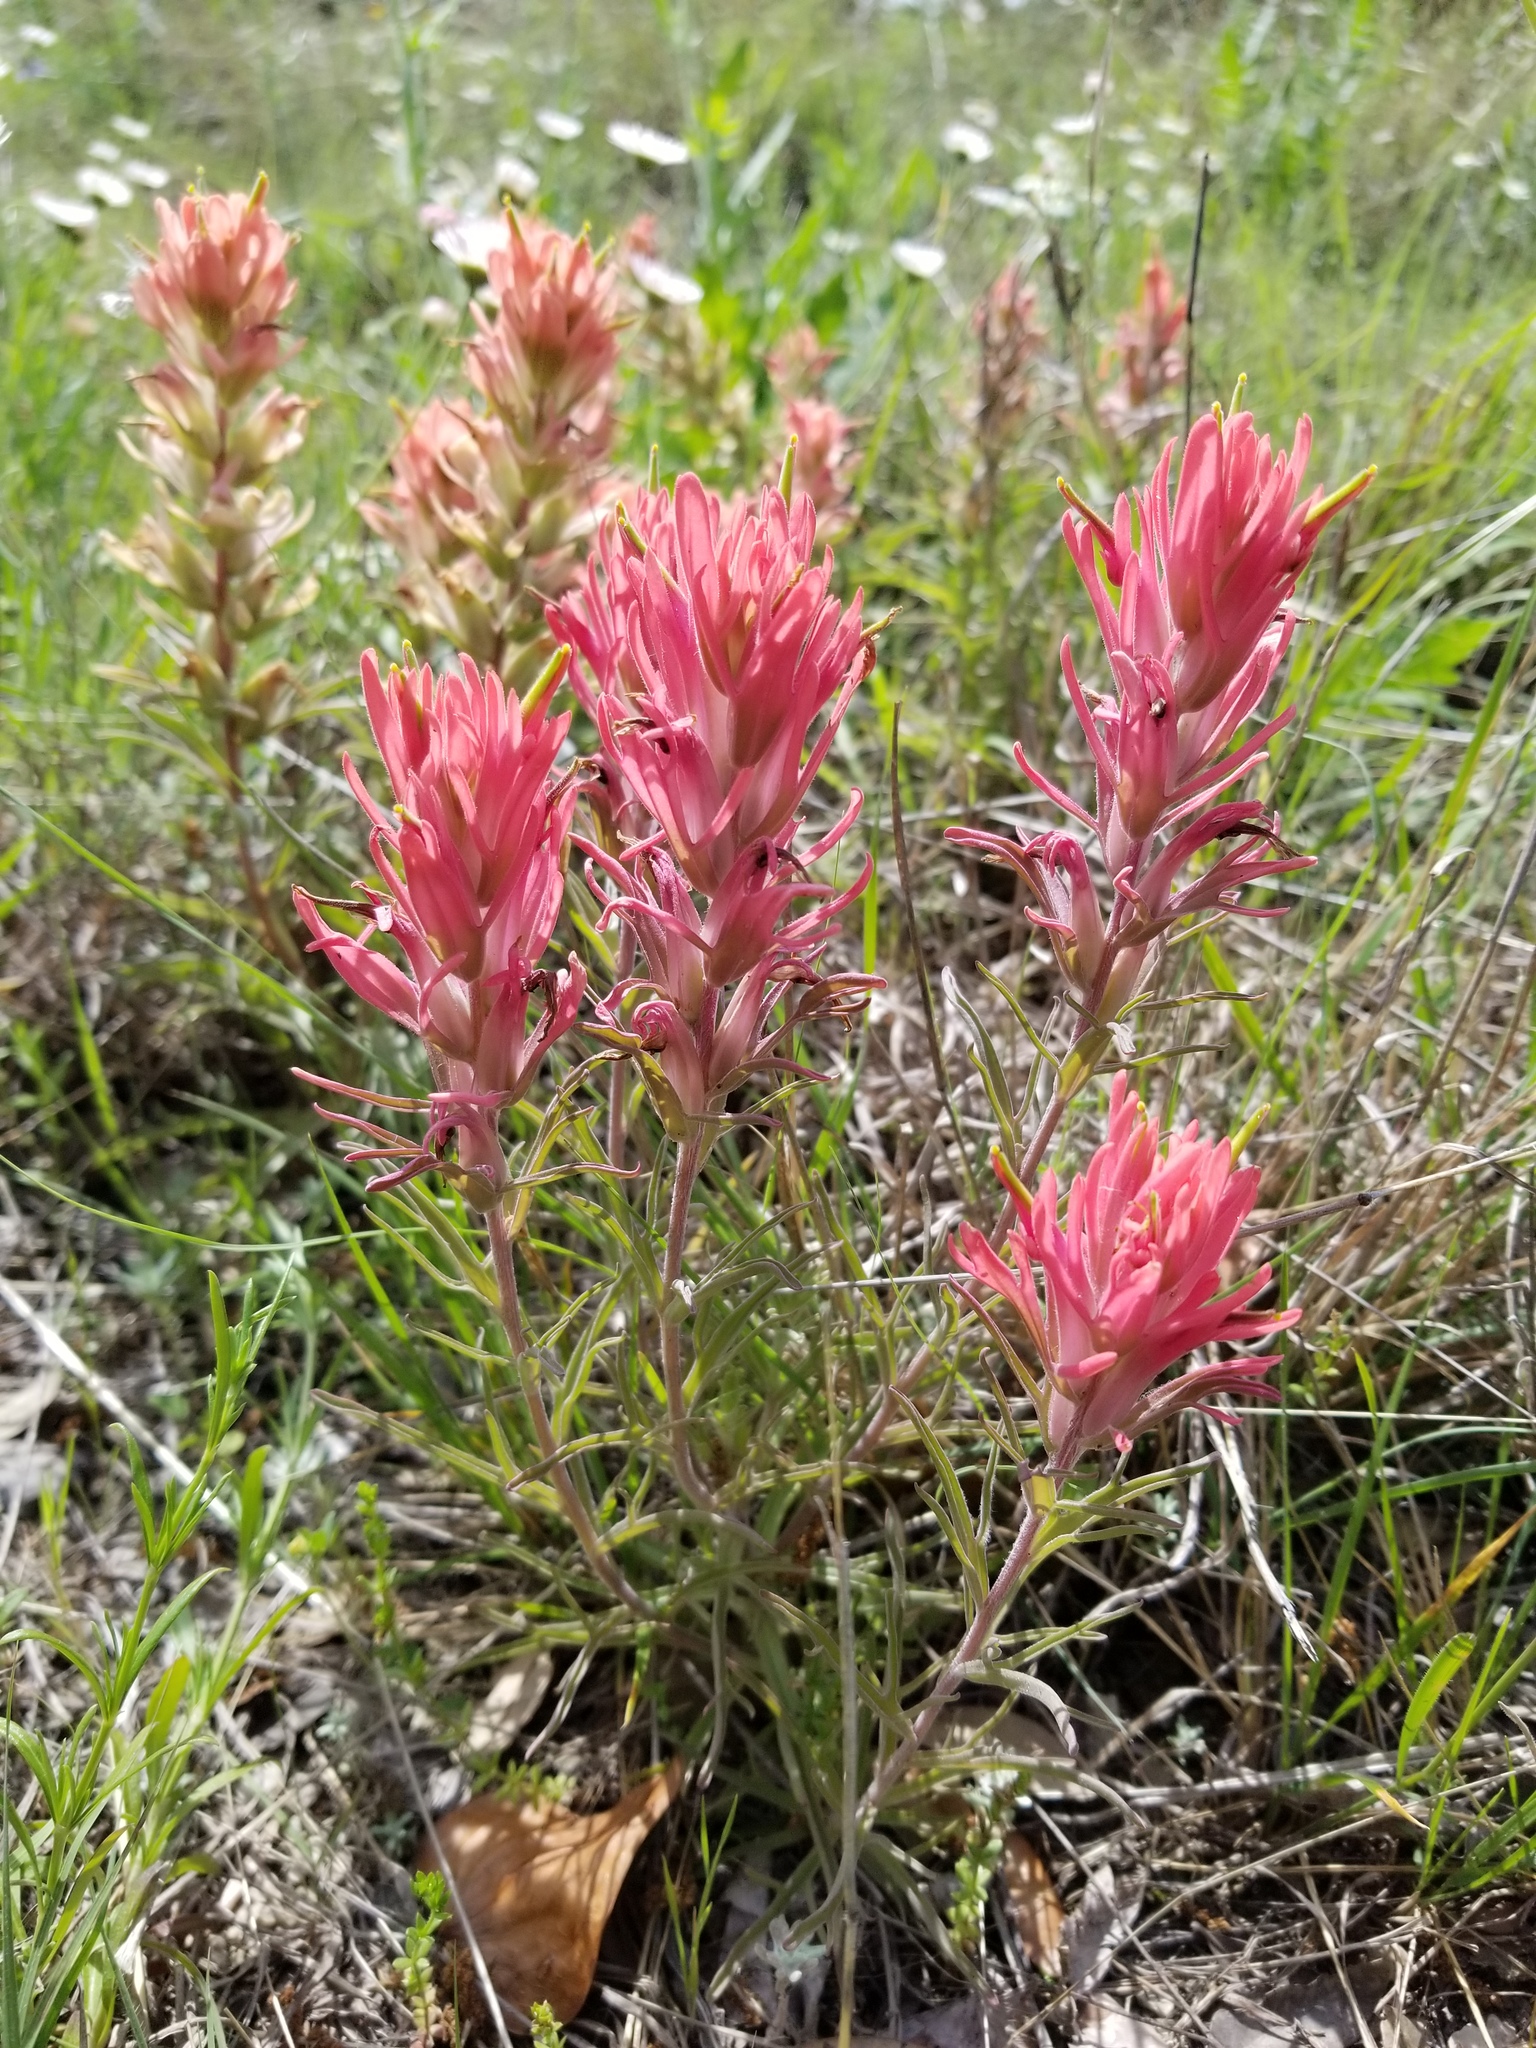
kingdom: Plantae
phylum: Tracheophyta
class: Magnoliopsida
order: Lamiales
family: Orobanchaceae
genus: Castilleja
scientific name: Castilleja purpurea
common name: Plains paintbrush
